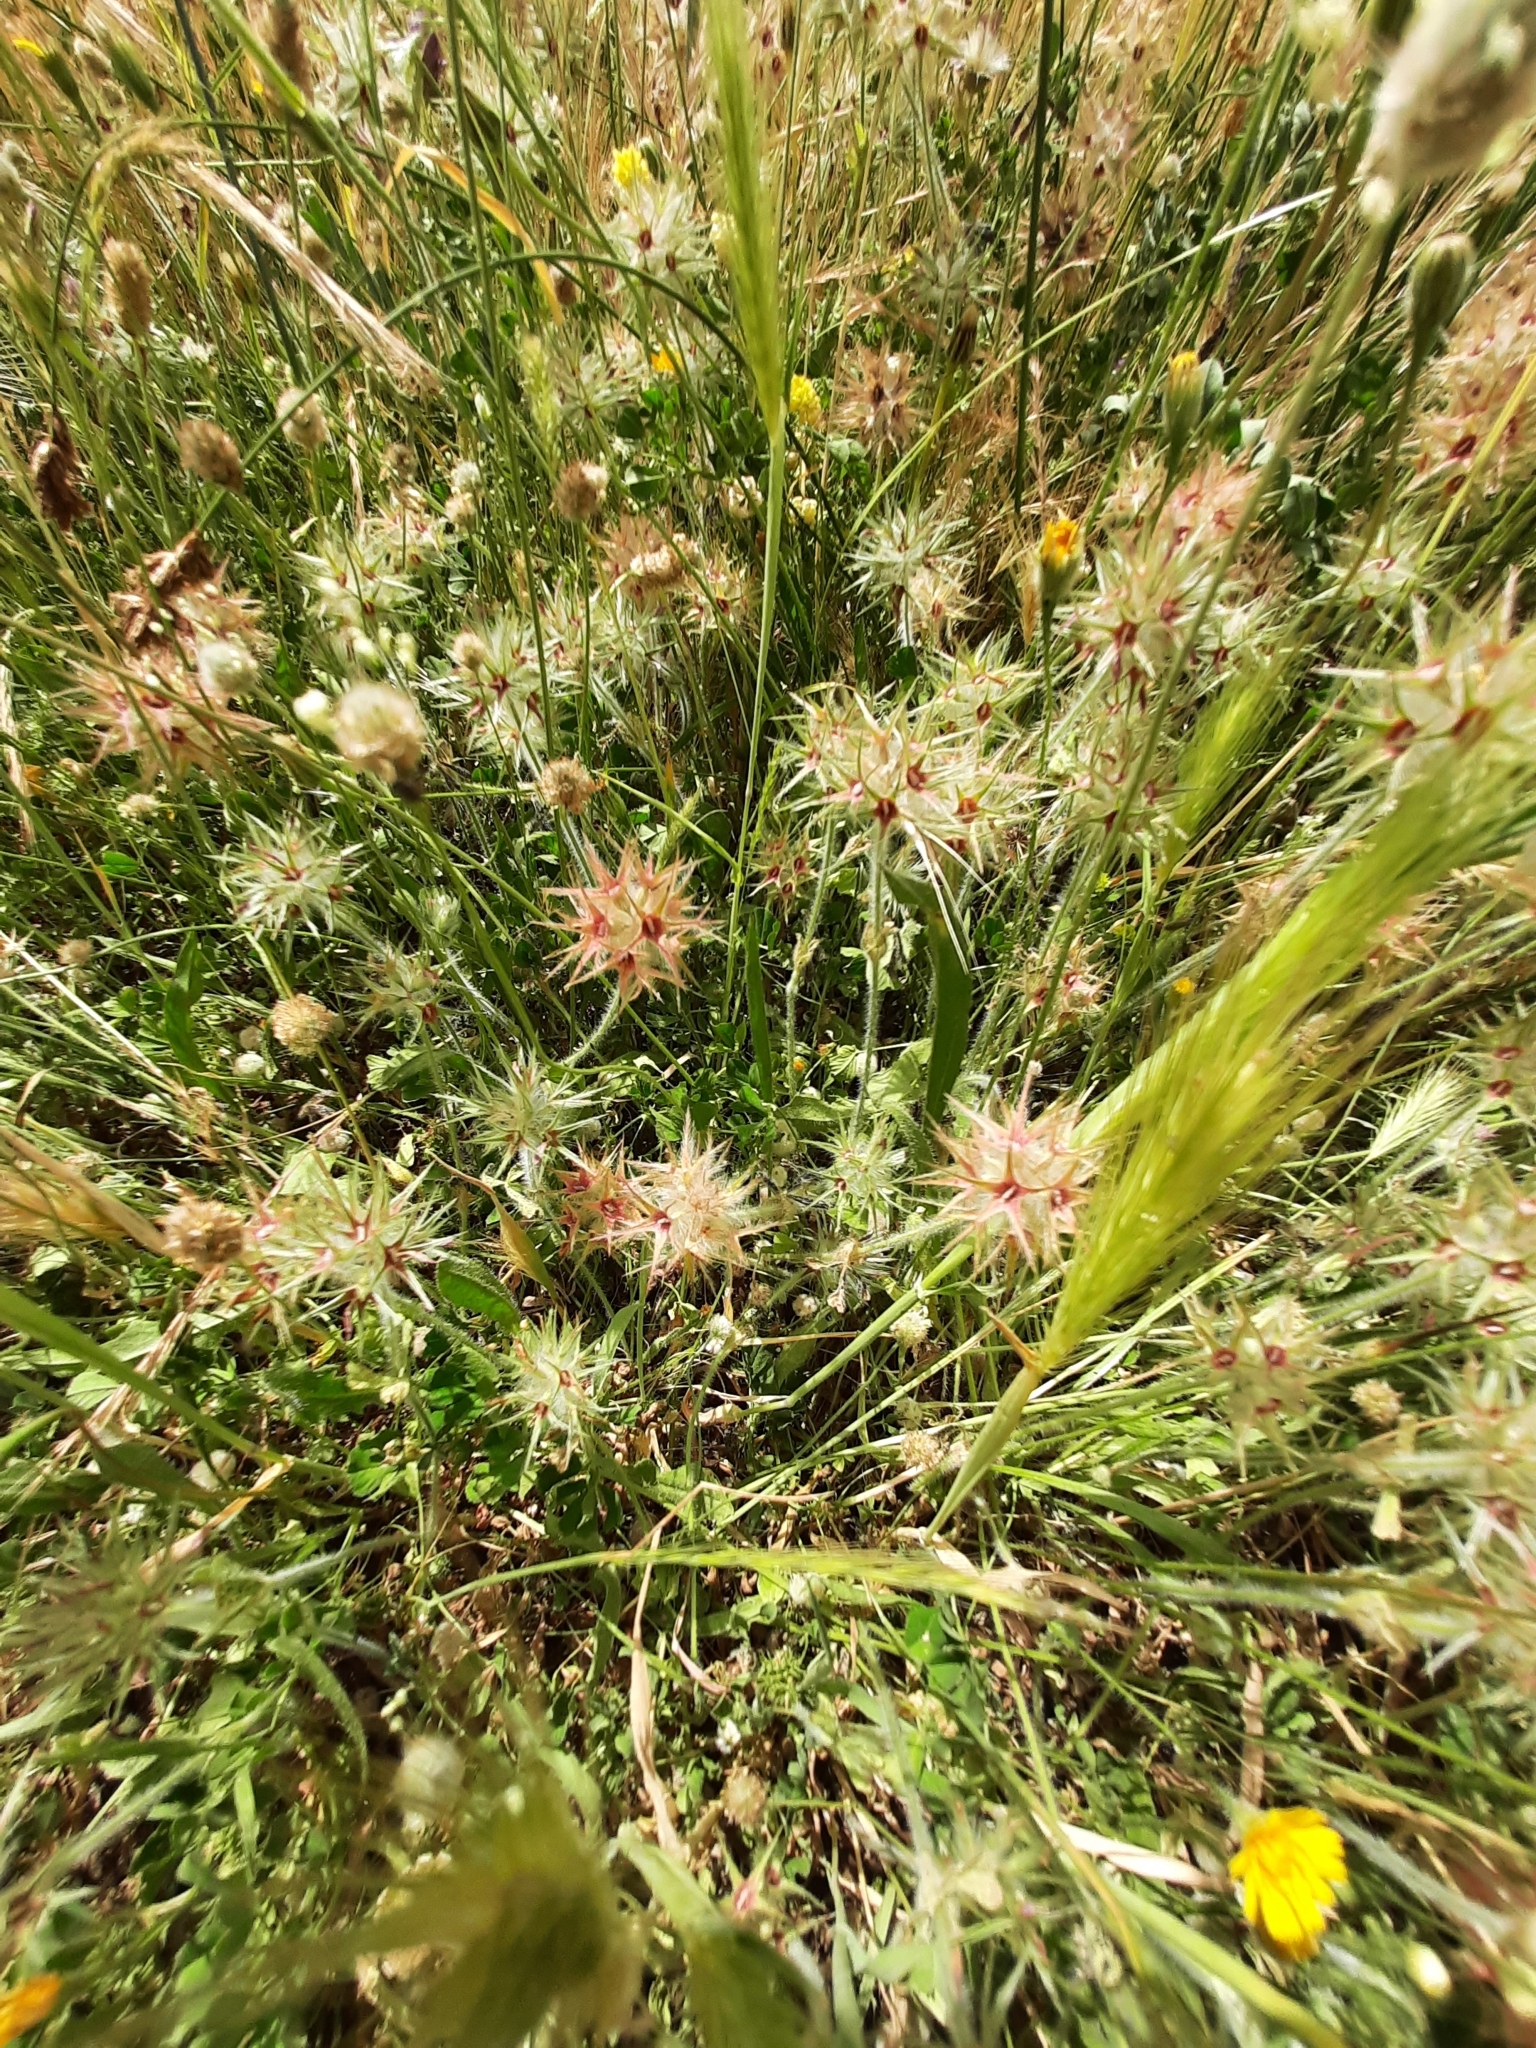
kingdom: Plantae
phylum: Tracheophyta
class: Magnoliopsida
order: Fabales
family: Fabaceae
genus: Trifolium
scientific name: Trifolium stellatum
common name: Starry clover
